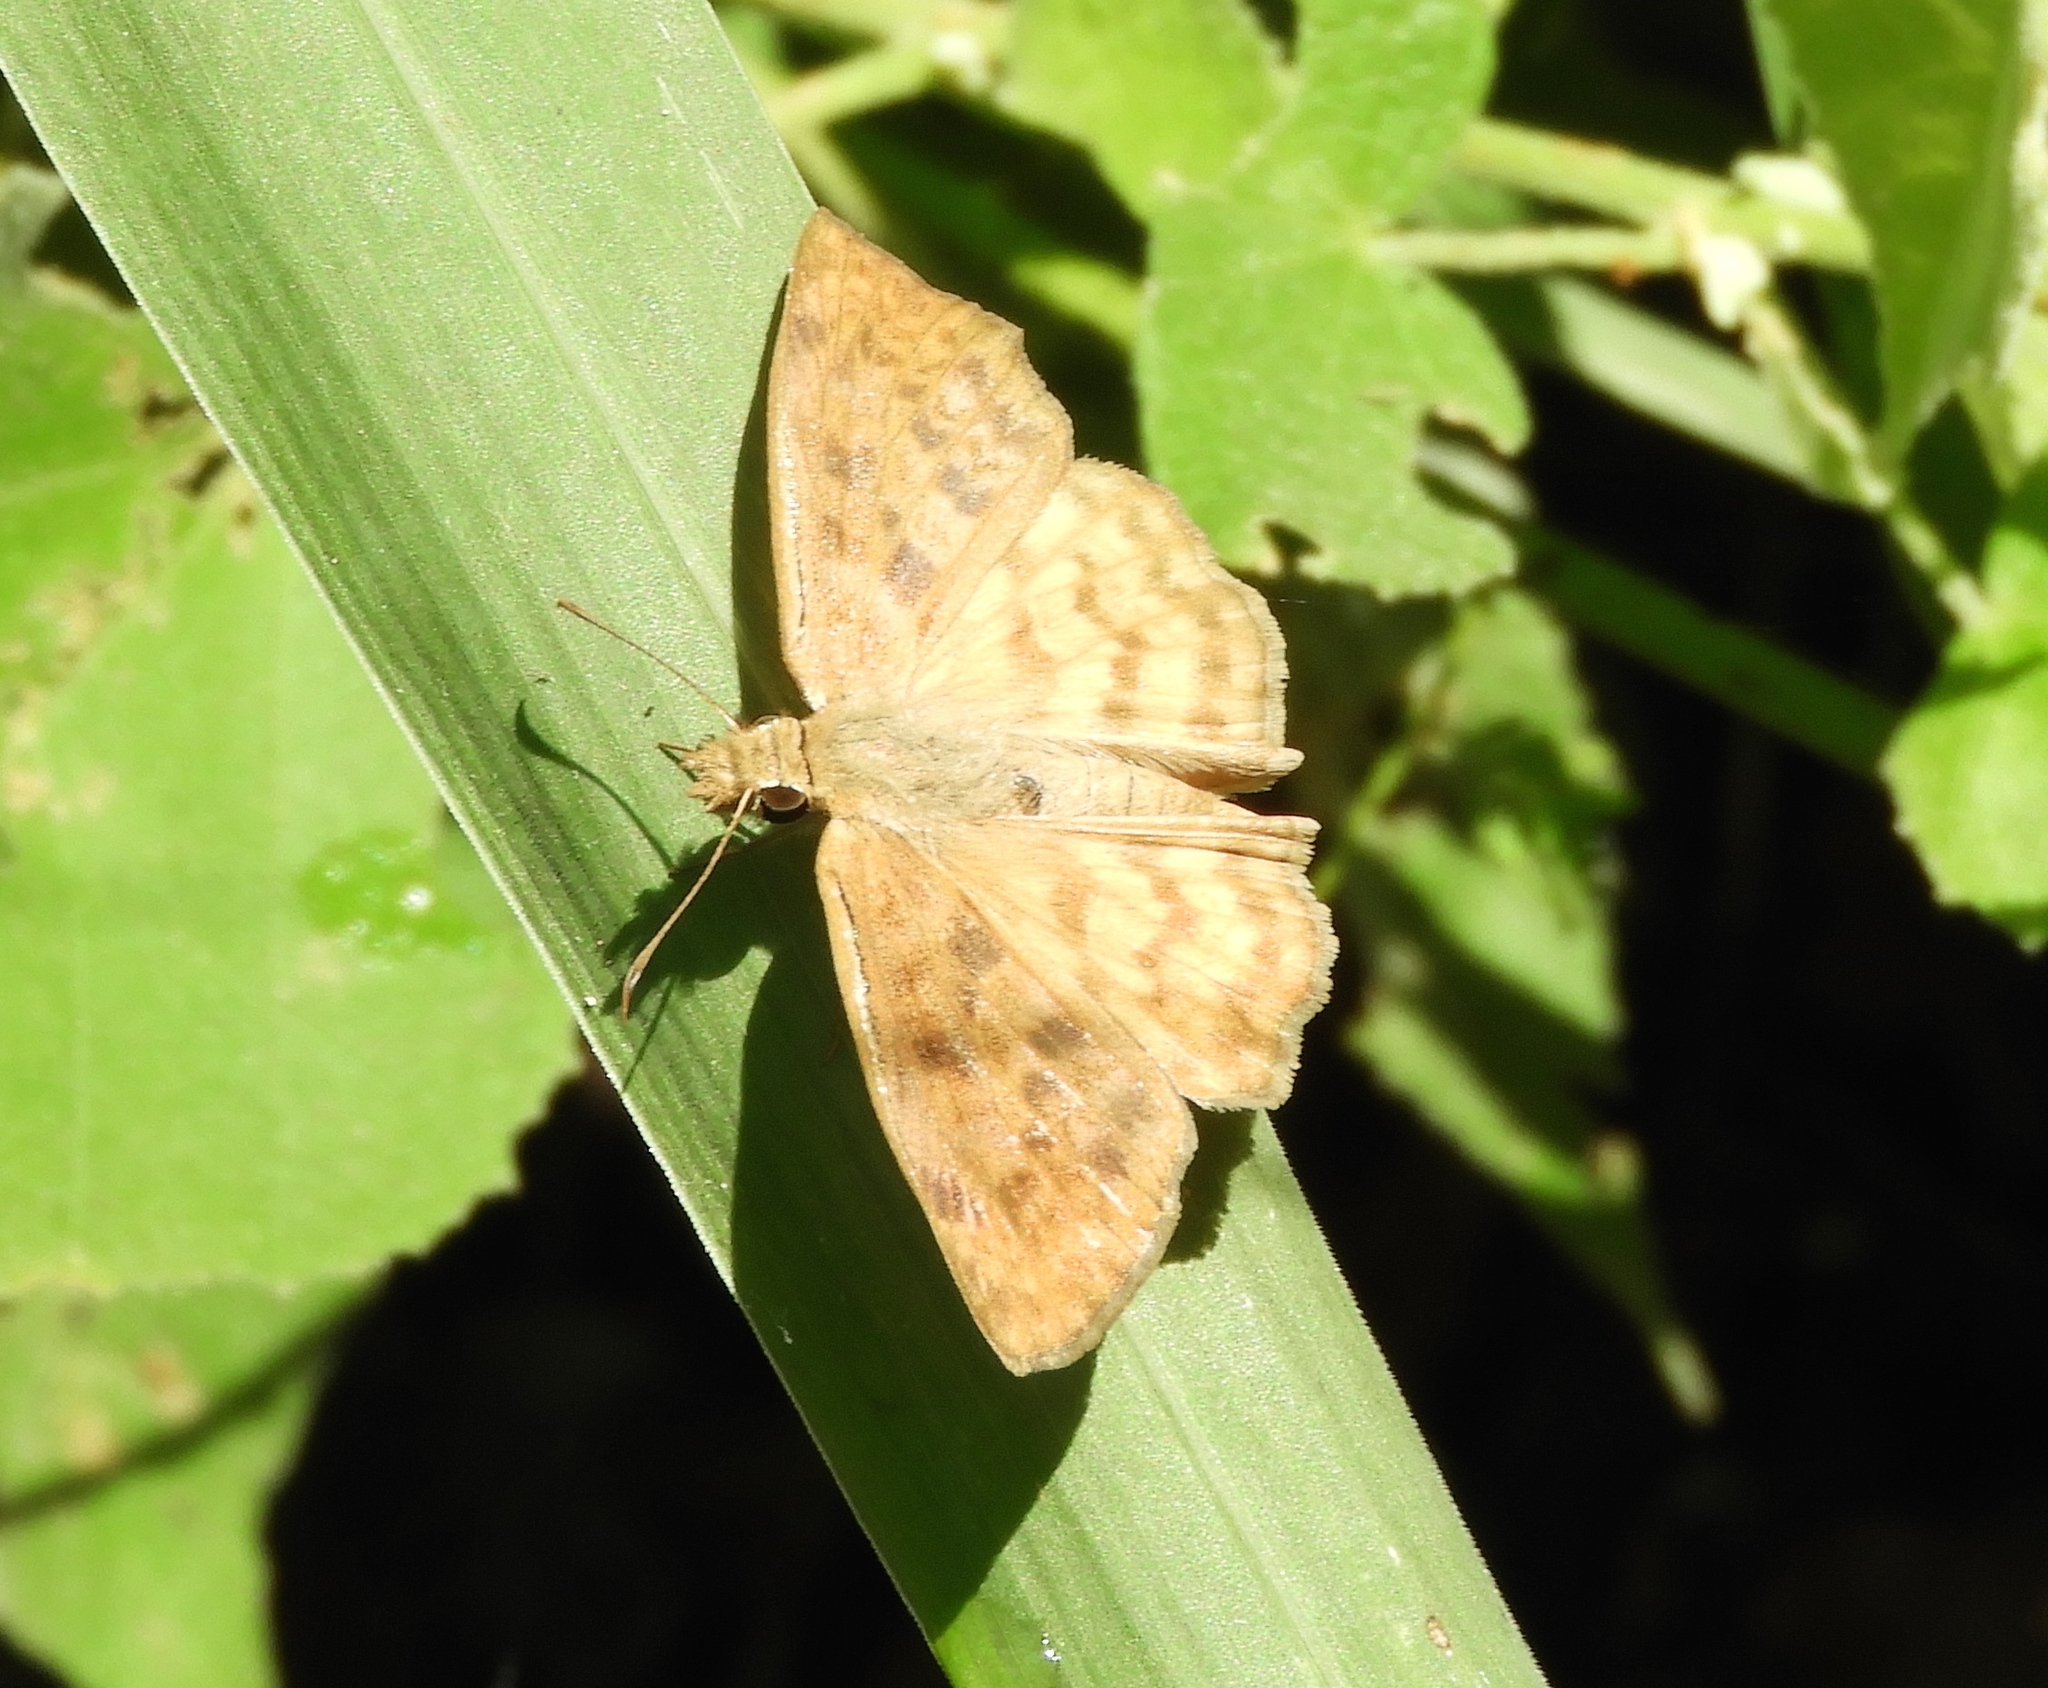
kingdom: Animalia
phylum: Arthropoda
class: Insecta
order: Lepidoptera
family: Hesperiidae
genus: Timochares
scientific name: Timochares ruptifasciata
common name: Brown-banded skipper
